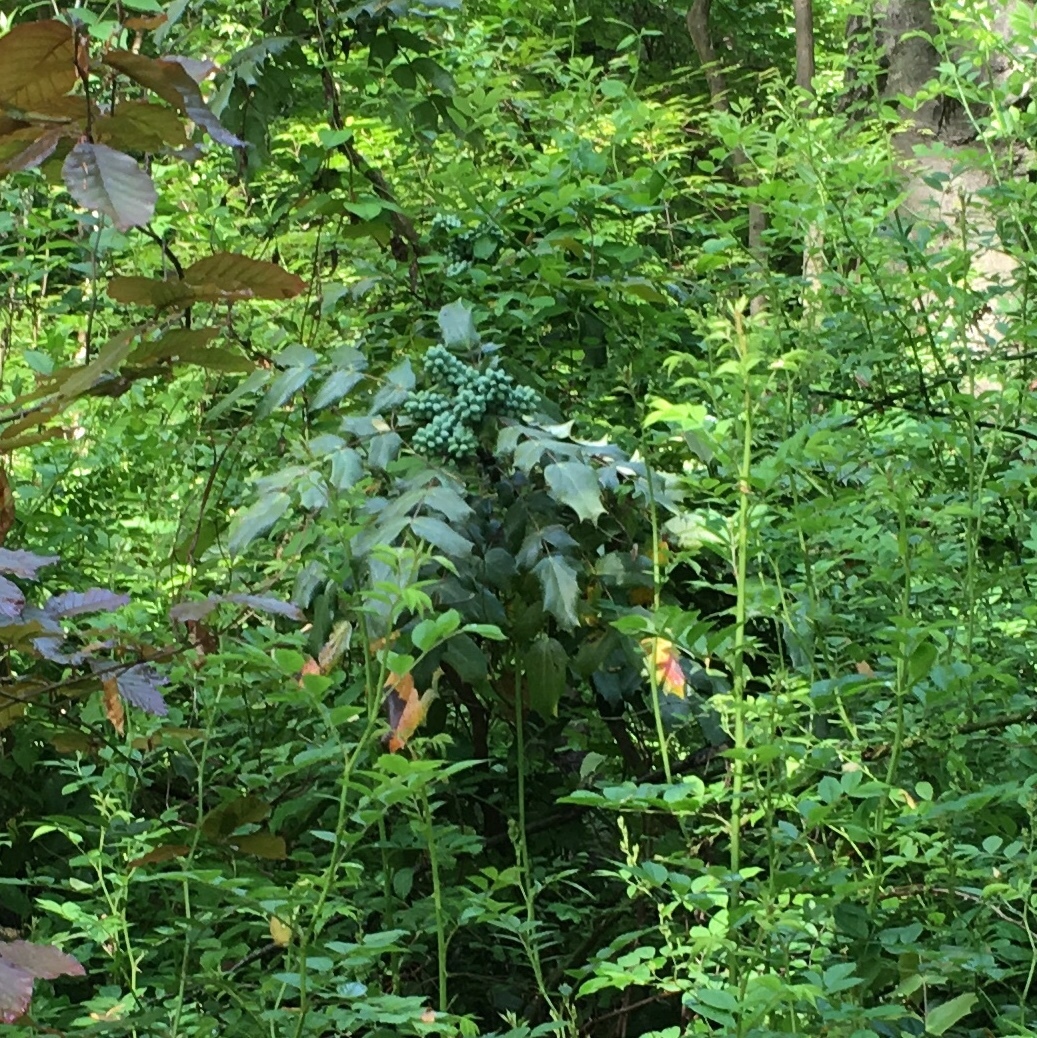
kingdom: Plantae
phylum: Tracheophyta
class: Magnoliopsida
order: Ranunculales
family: Berberidaceae
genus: Mahonia
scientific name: Mahonia bealei
